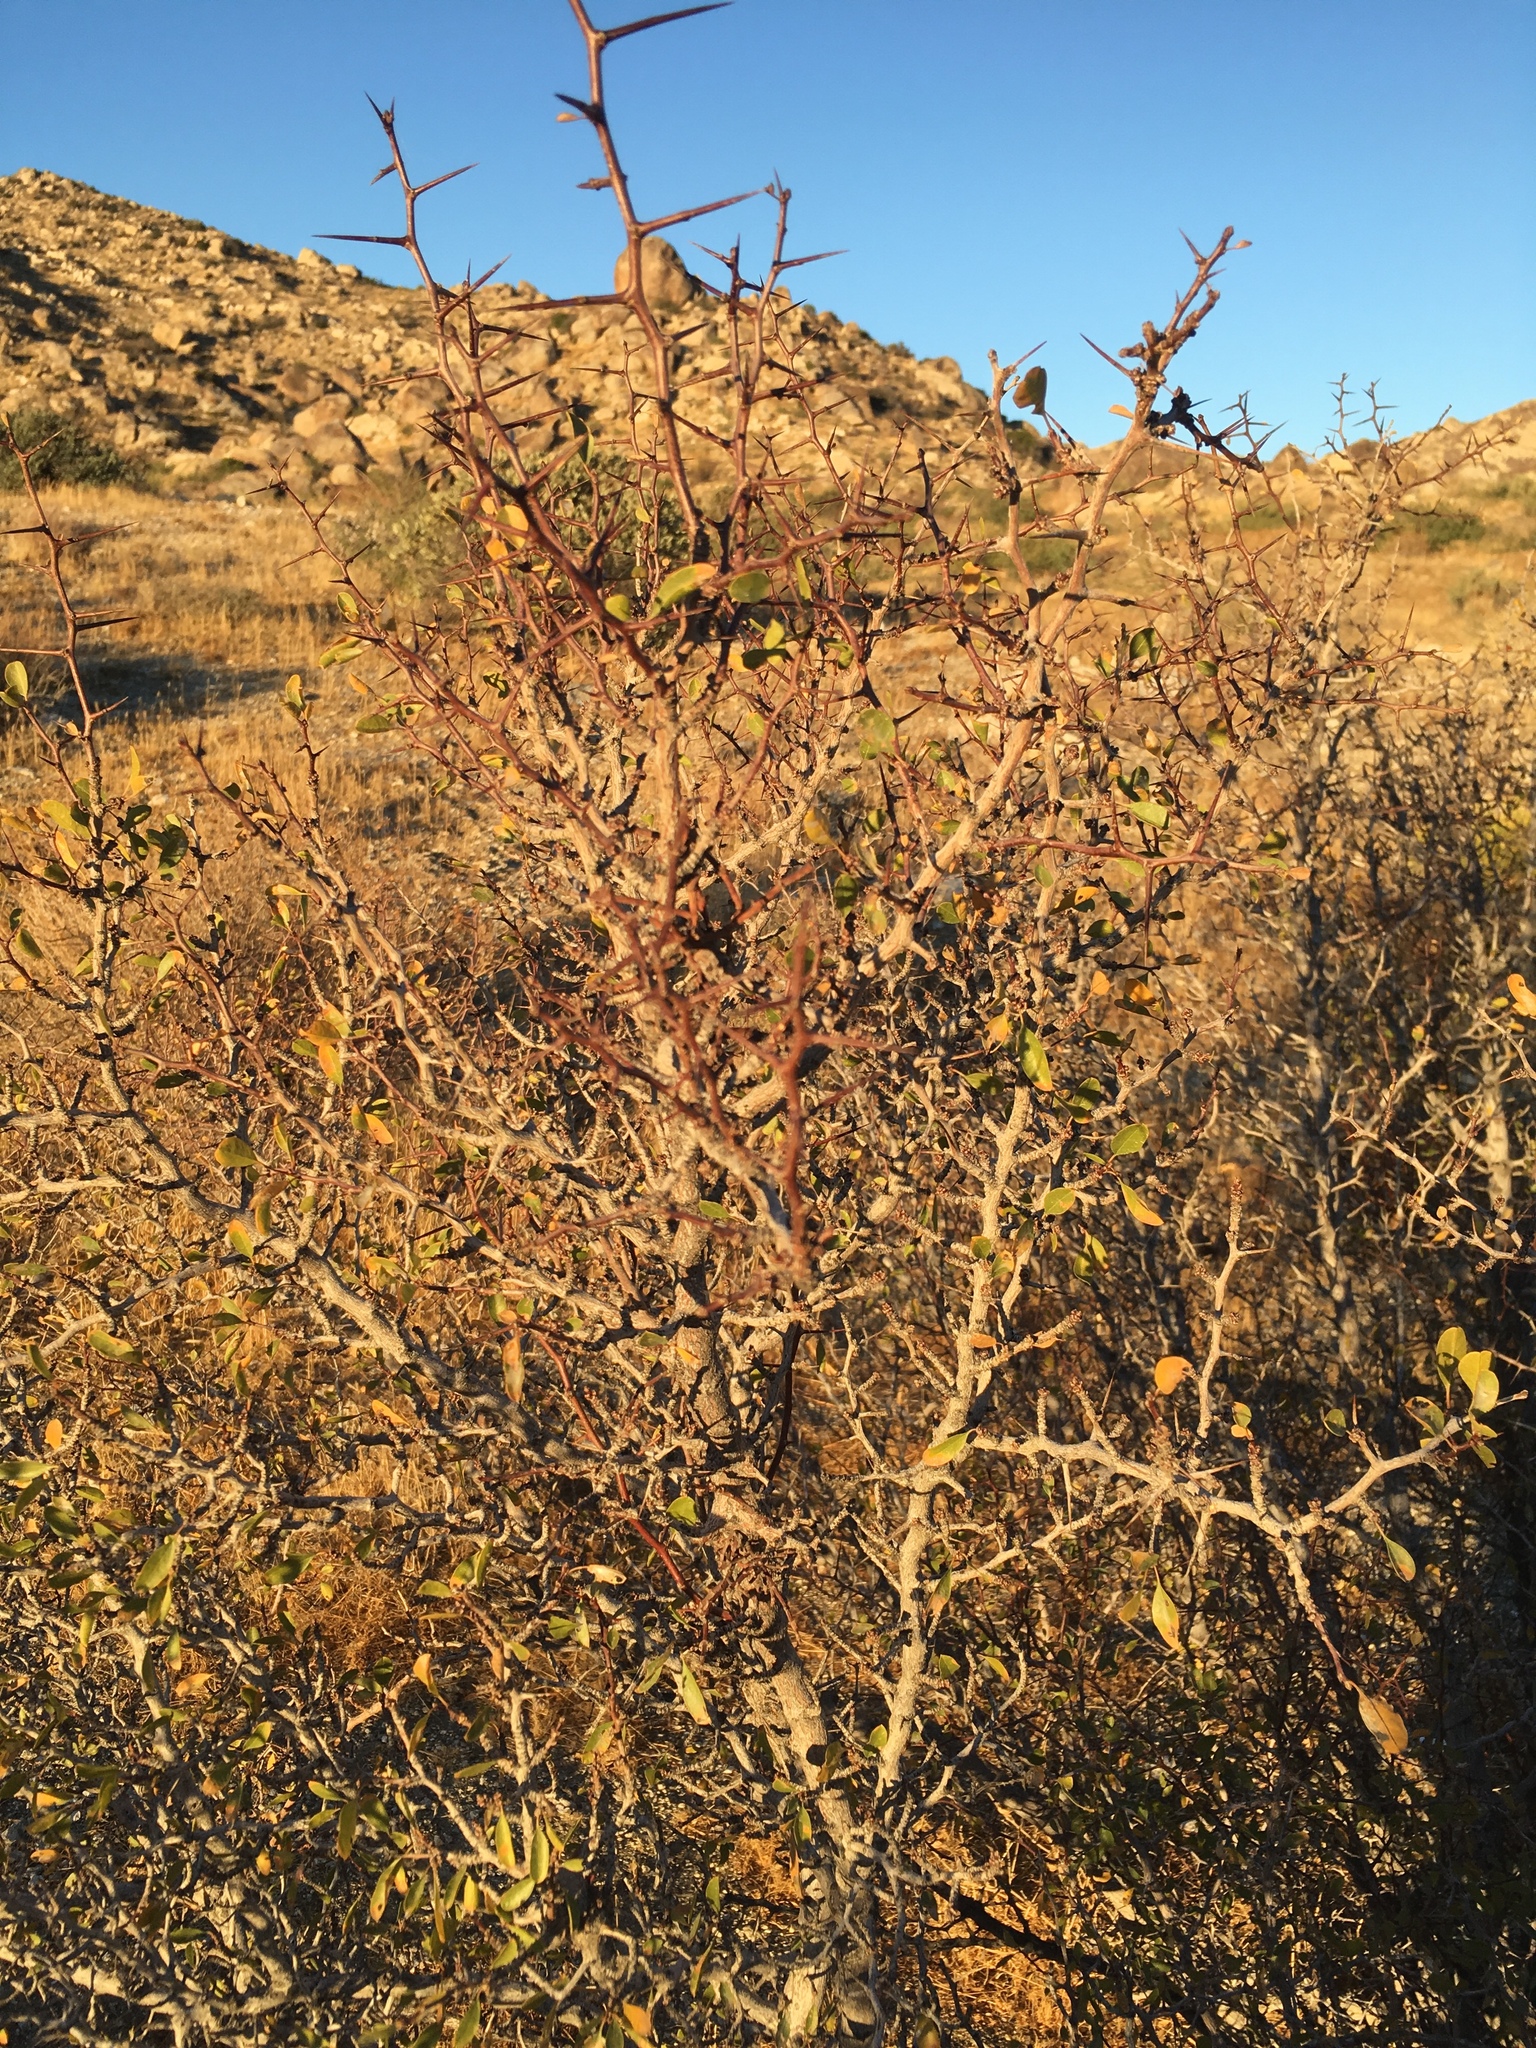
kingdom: Plantae
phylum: Tracheophyta
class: Magnoliopsida
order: Rosales
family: Rhamnaceae
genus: Pseudoziziphus
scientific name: Pseudoziziphus parryi
